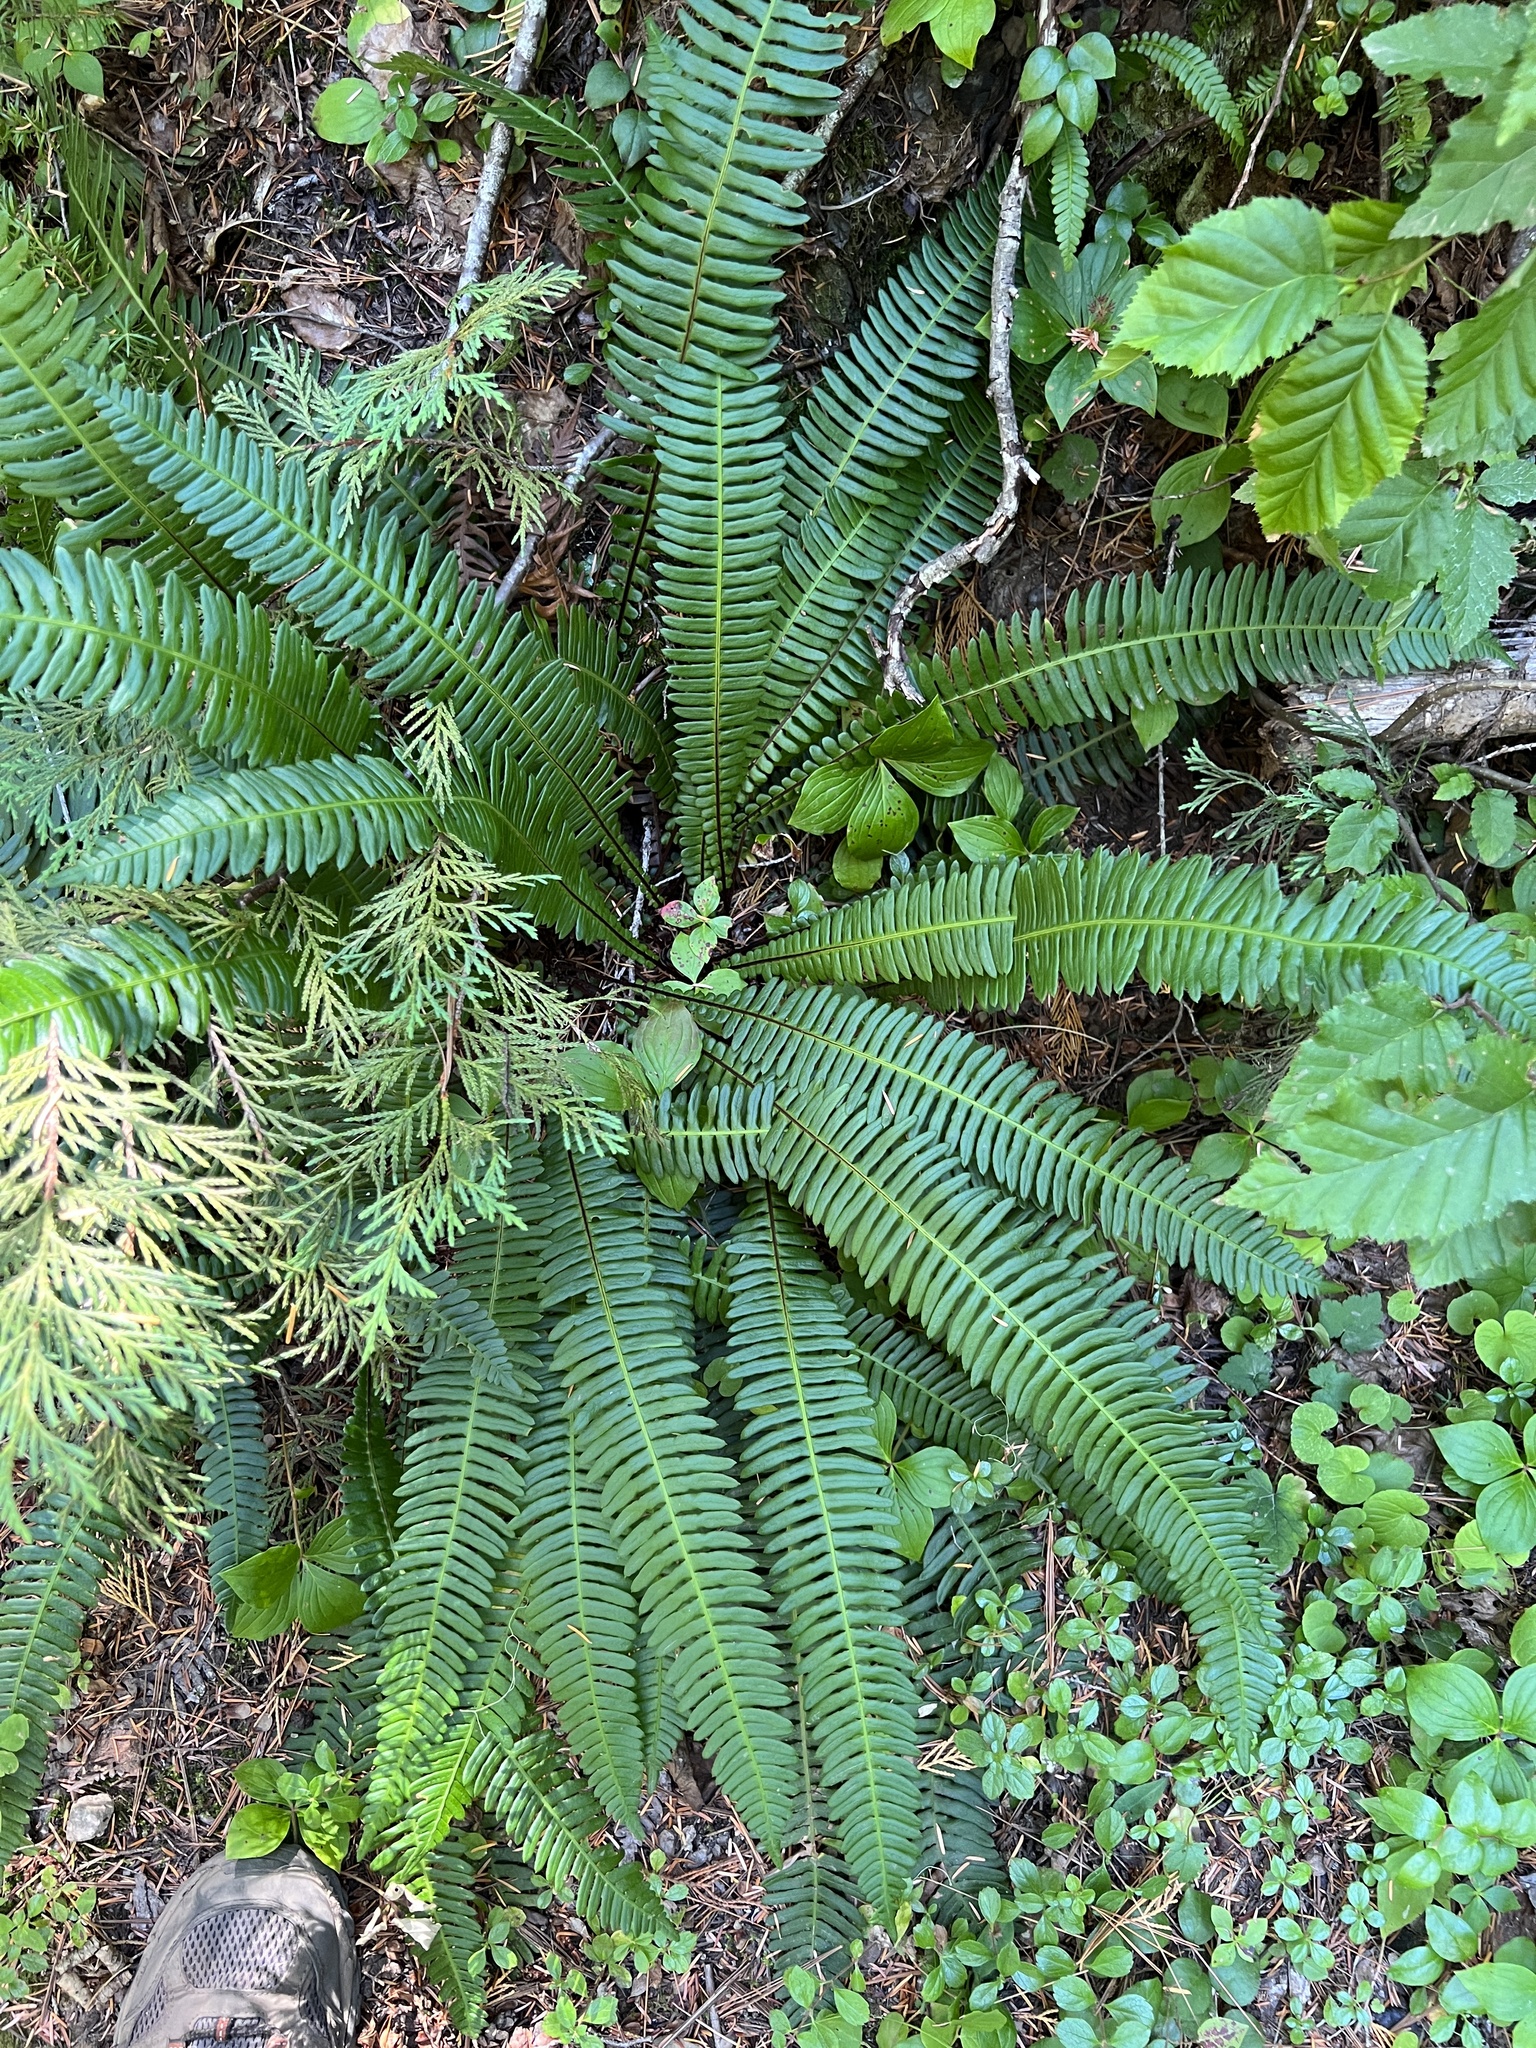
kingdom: Plantae
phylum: Tracheophyta
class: Polypodiopsida
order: Polypodiales
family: Blechnaceae
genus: Struthiopteris
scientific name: Struthiopteris spicant
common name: Deer fern
